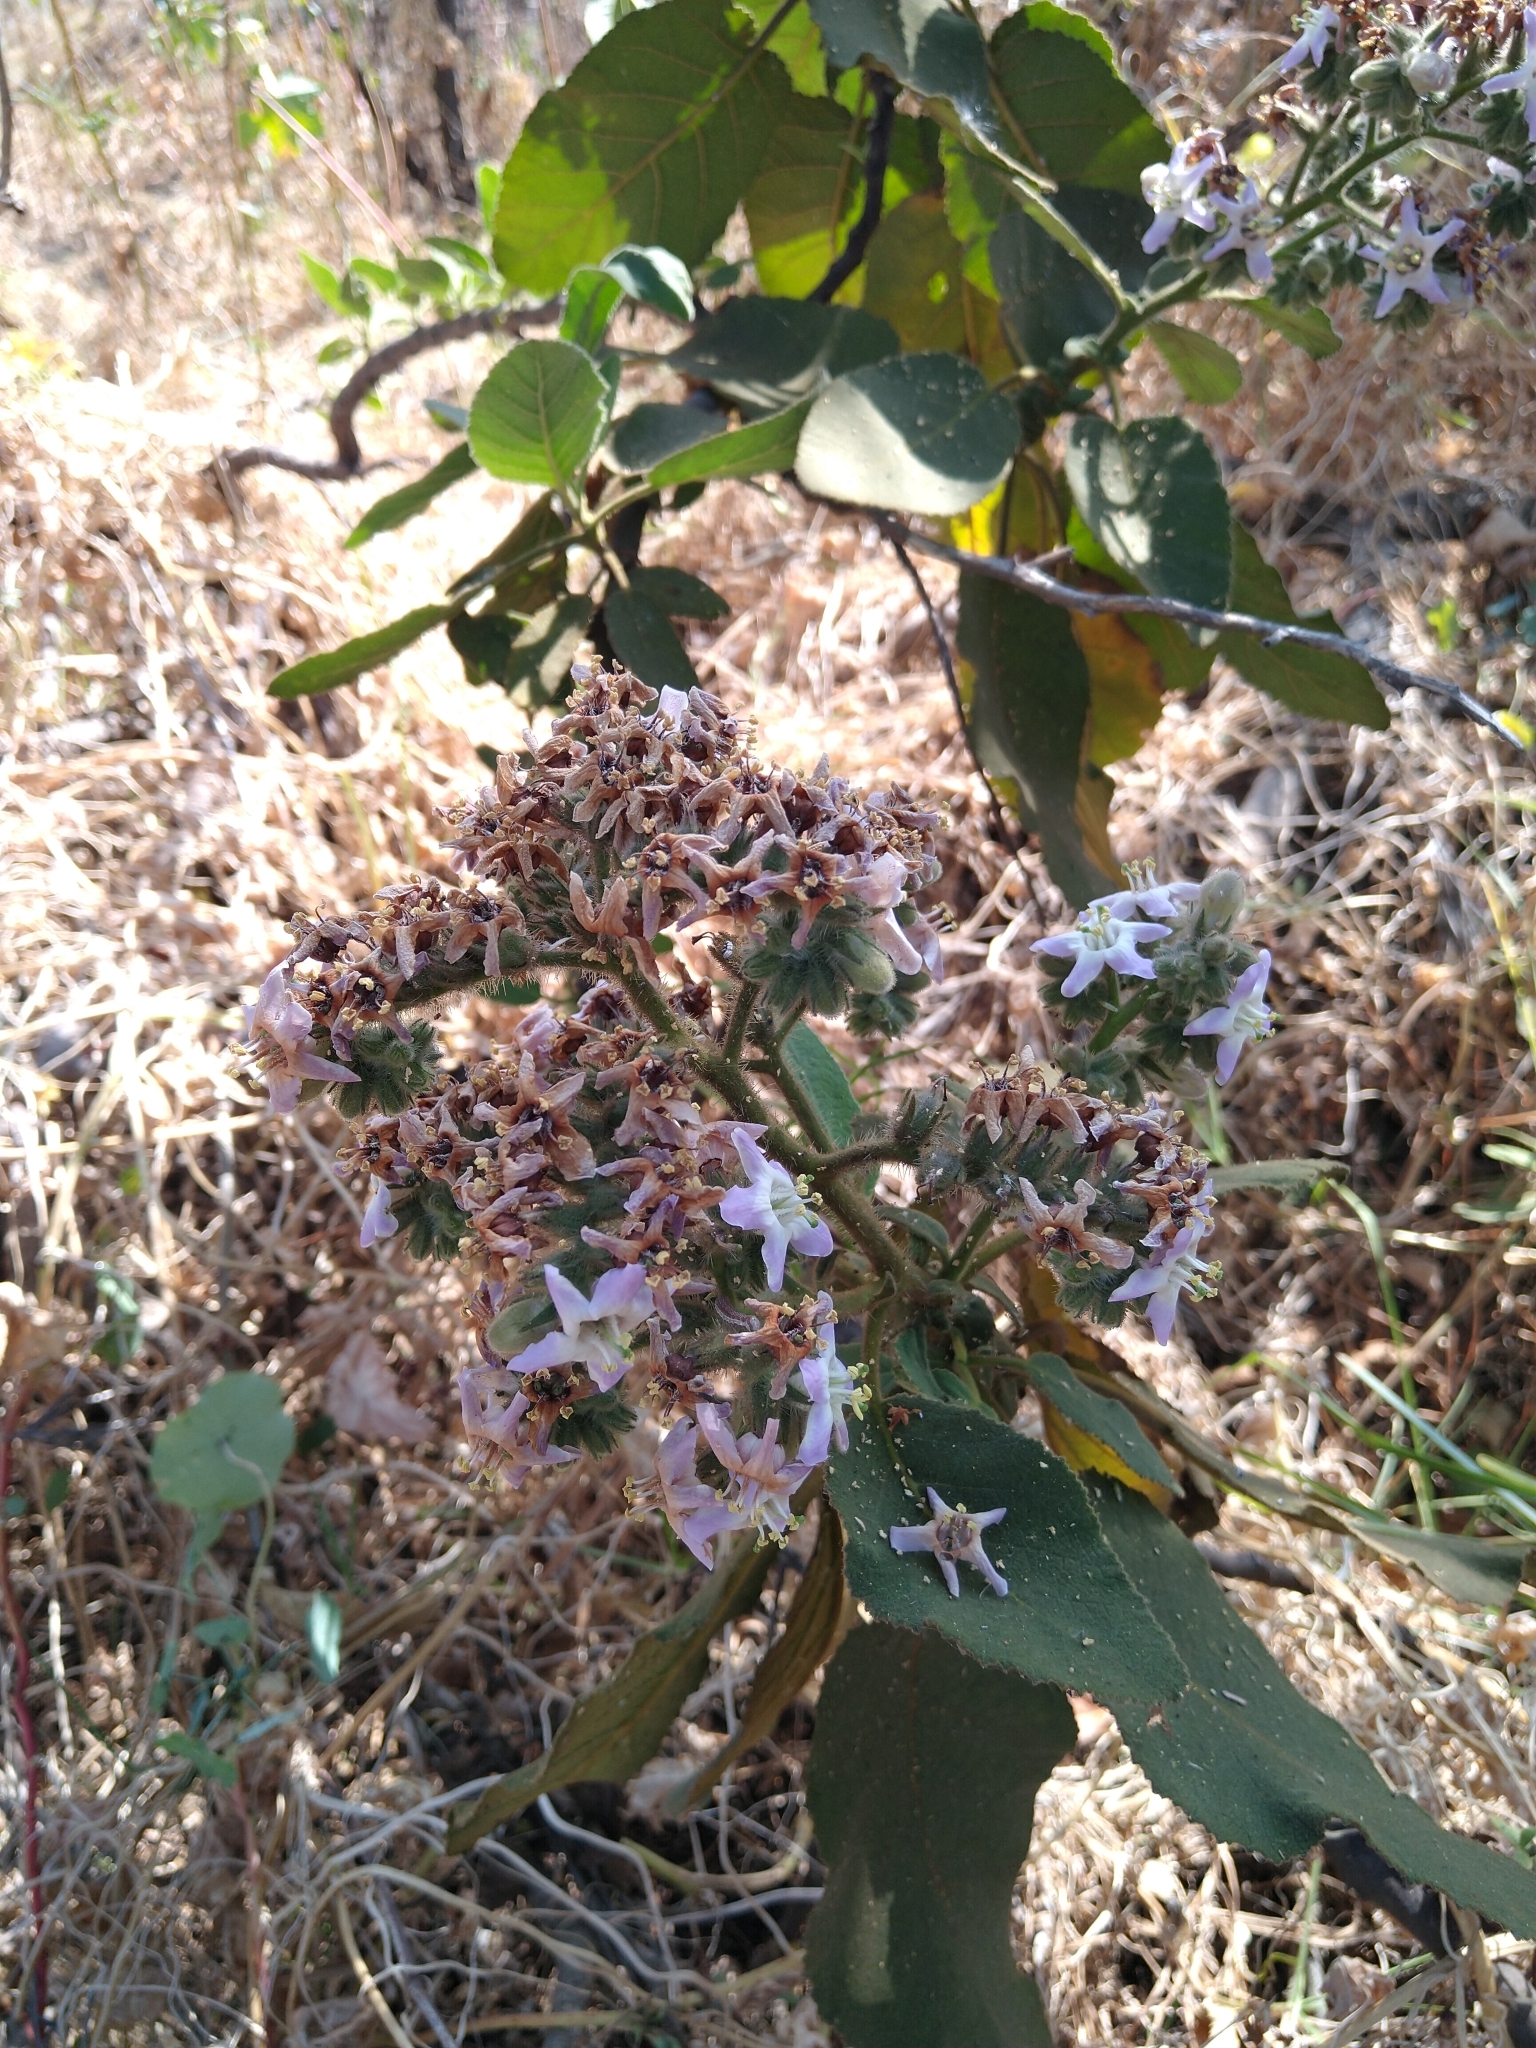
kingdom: Plantae
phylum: Tracheophyta
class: Magnoliopsida
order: Boraginales
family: Namaceae
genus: Wigandia
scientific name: Wigandia urens
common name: Caracus wigandia
